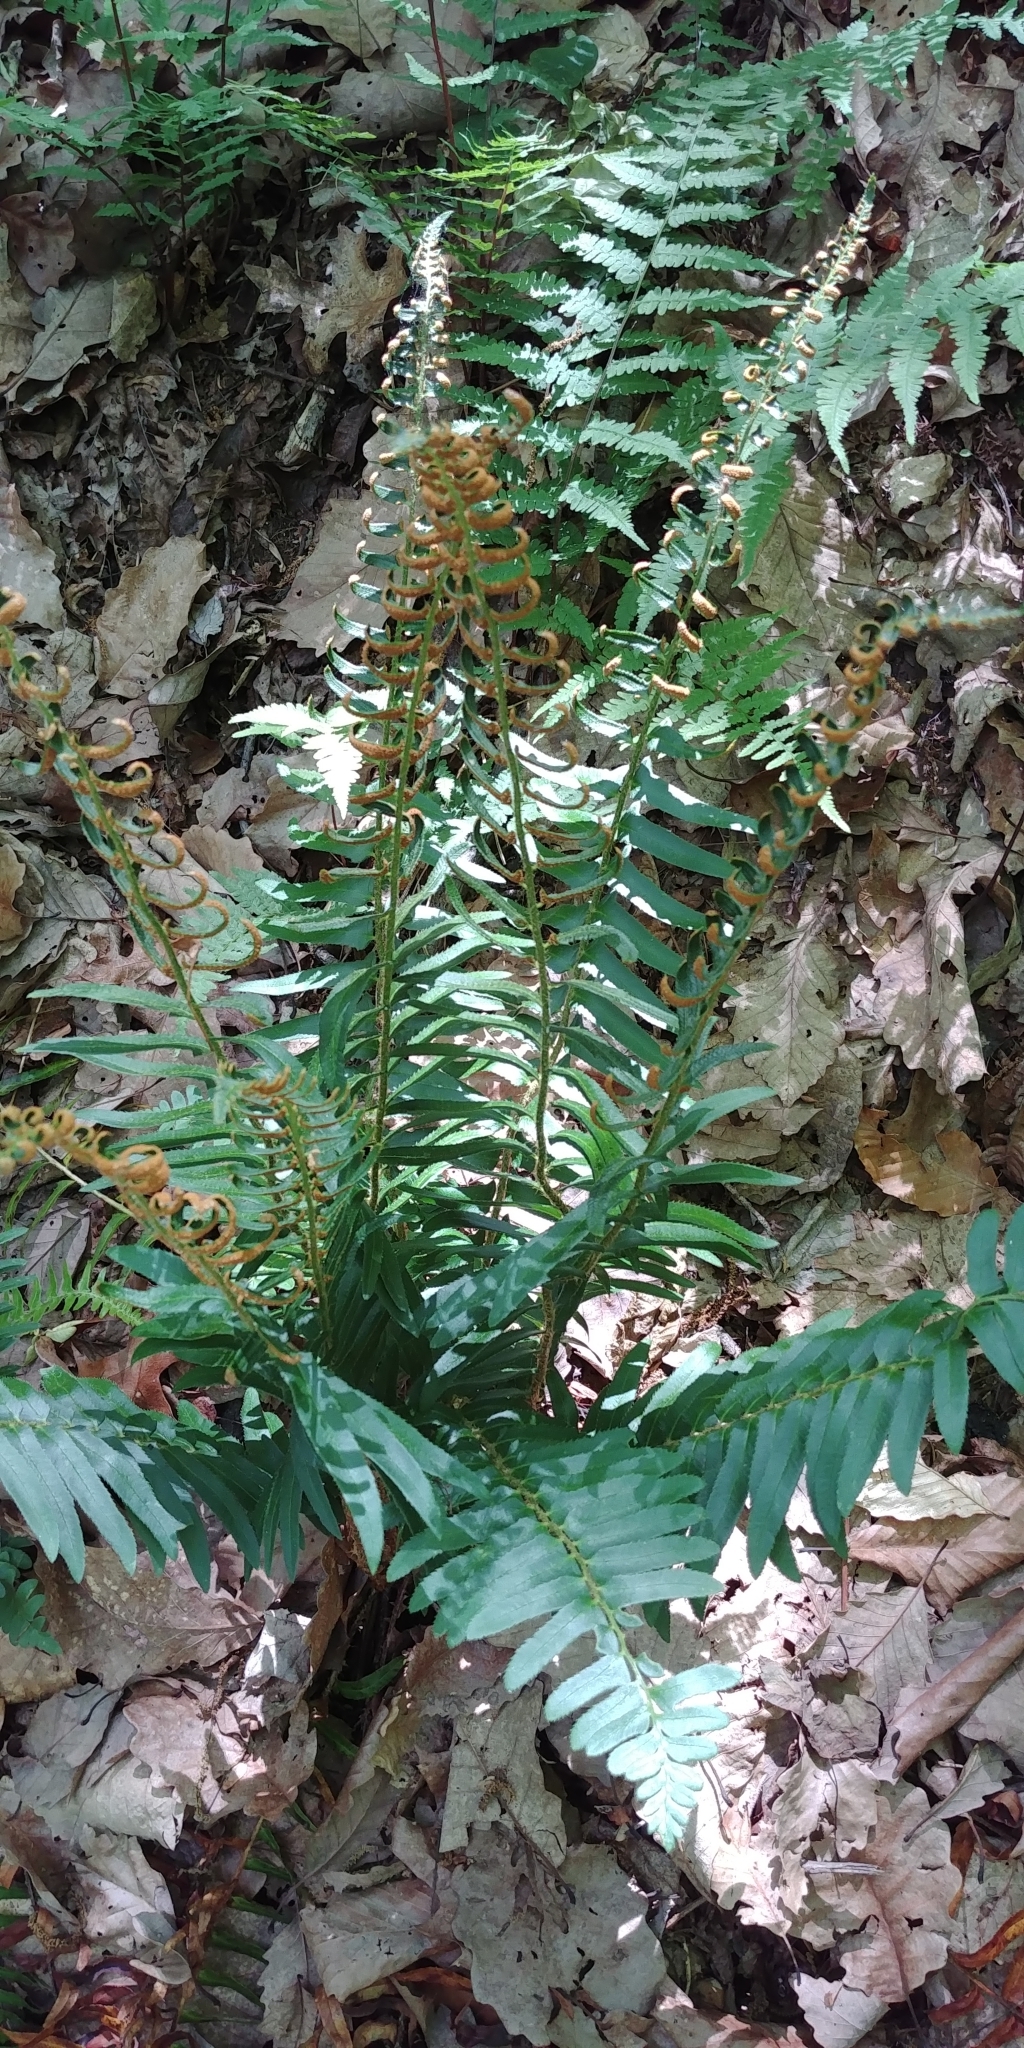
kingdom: Plantae
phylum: Tracheophyta
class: Polypodiopsida
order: Polypodiales
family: Dryopteridaceae
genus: Polystichum
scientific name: Polystichum acrostichoides
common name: Christmas fern
